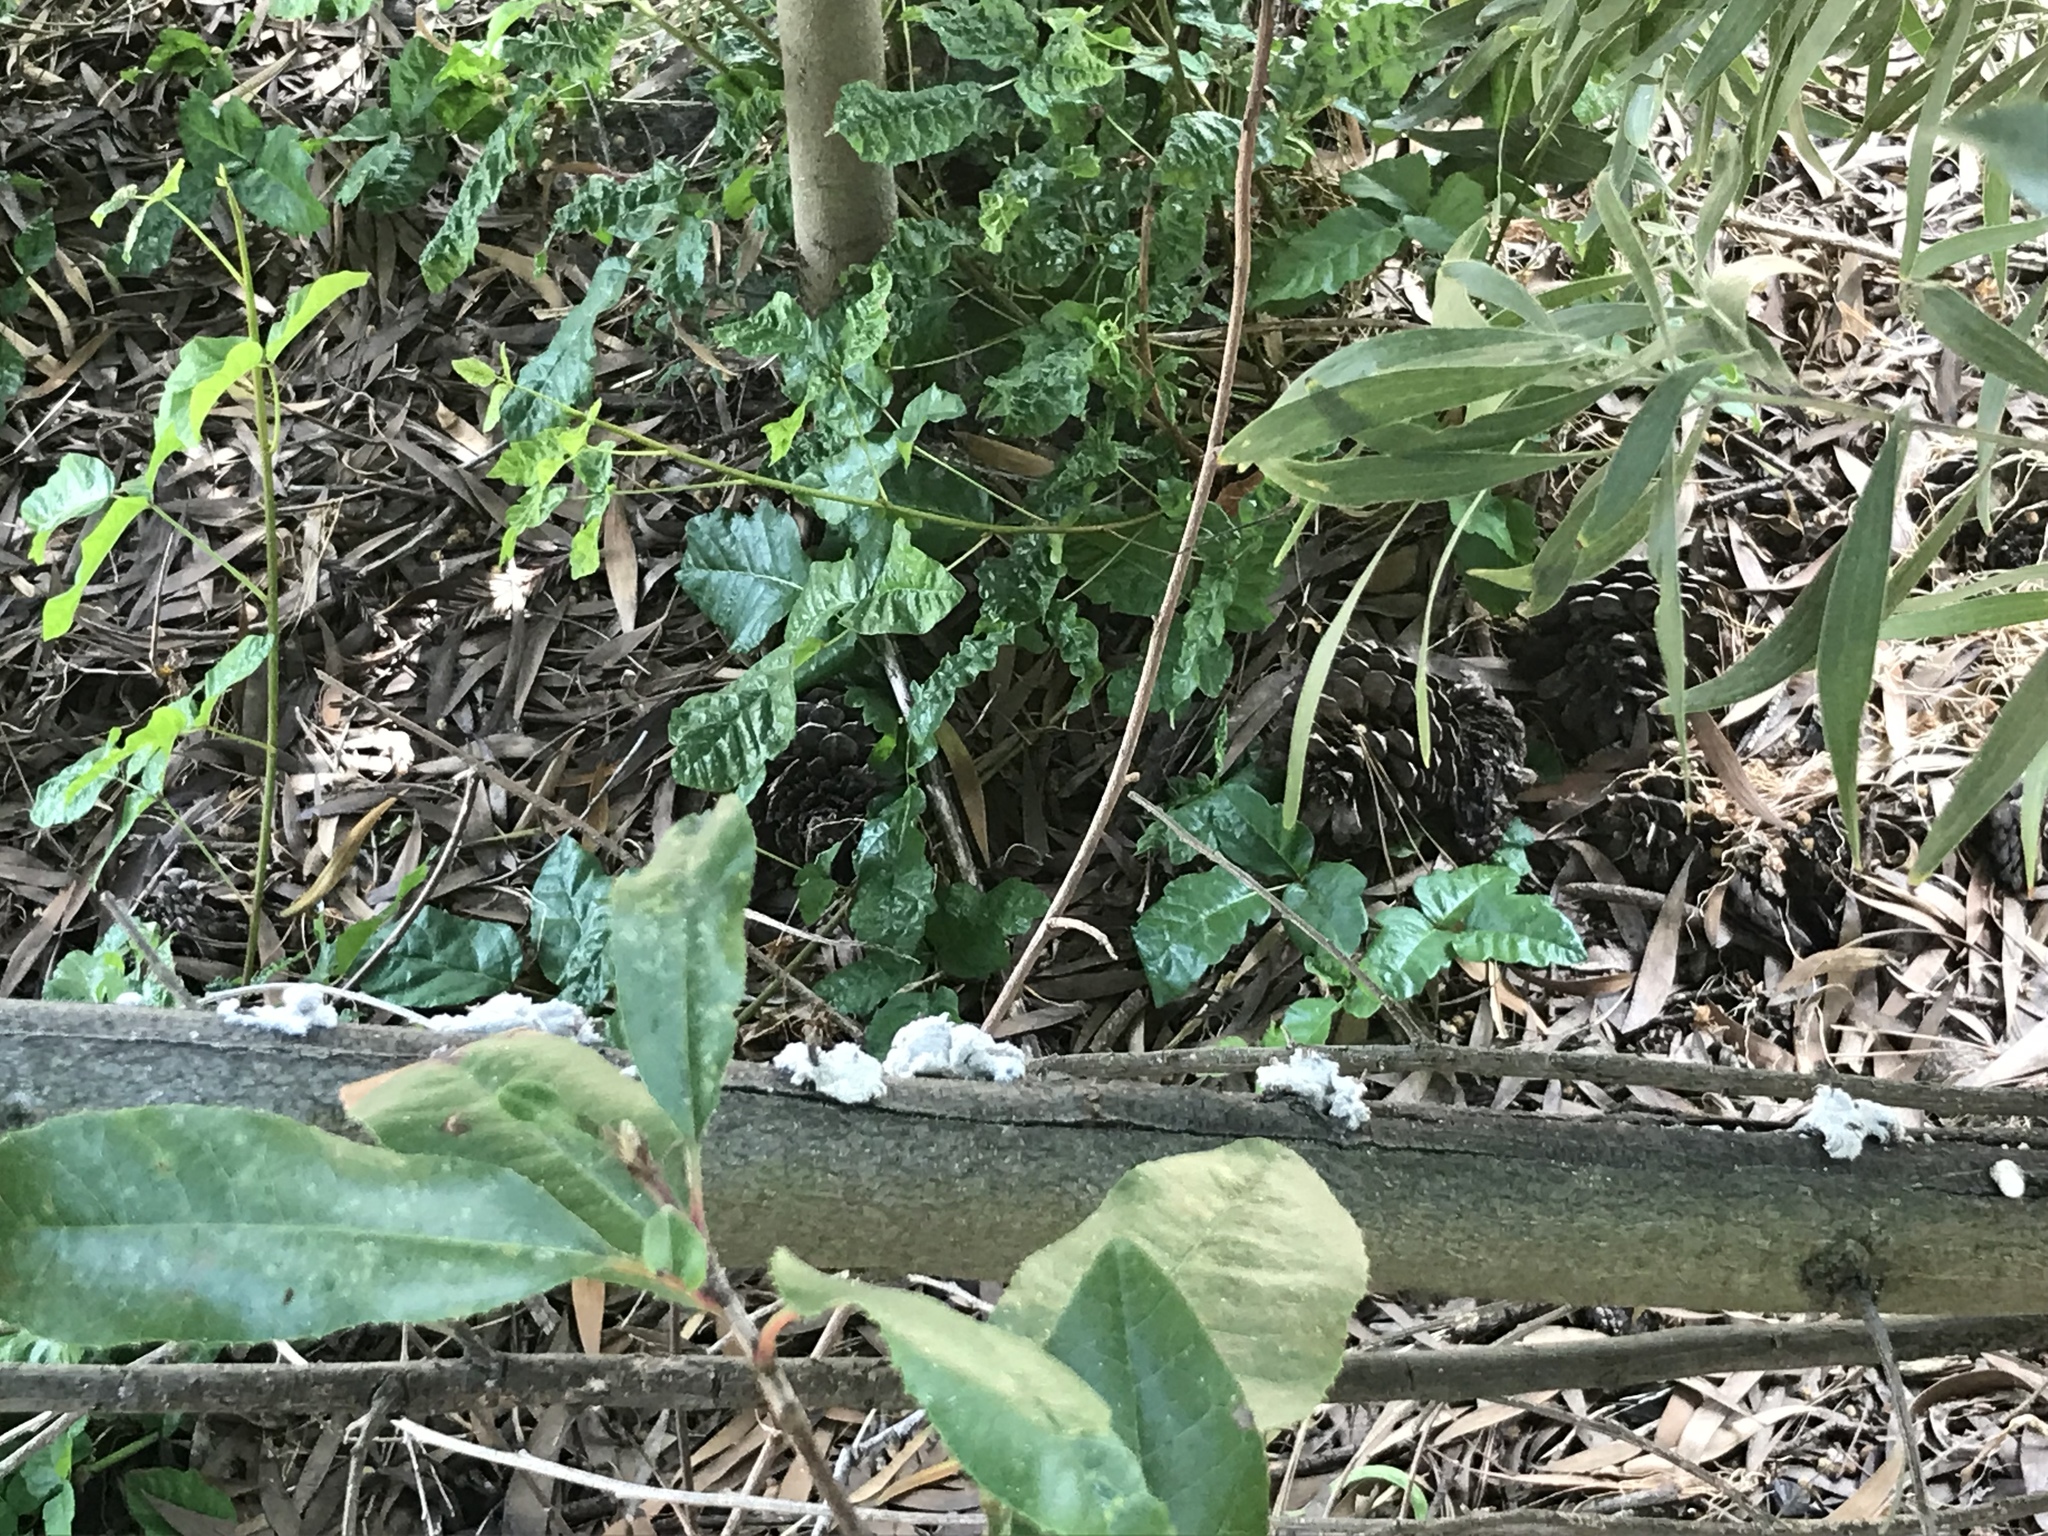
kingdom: Plantae
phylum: Tracheophyta
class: Magnoliopsida
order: Sapindales
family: Anacardiaceae
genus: Toxicodendron
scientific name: Toxicodendron diversilobum
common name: Pacific poison-oak
